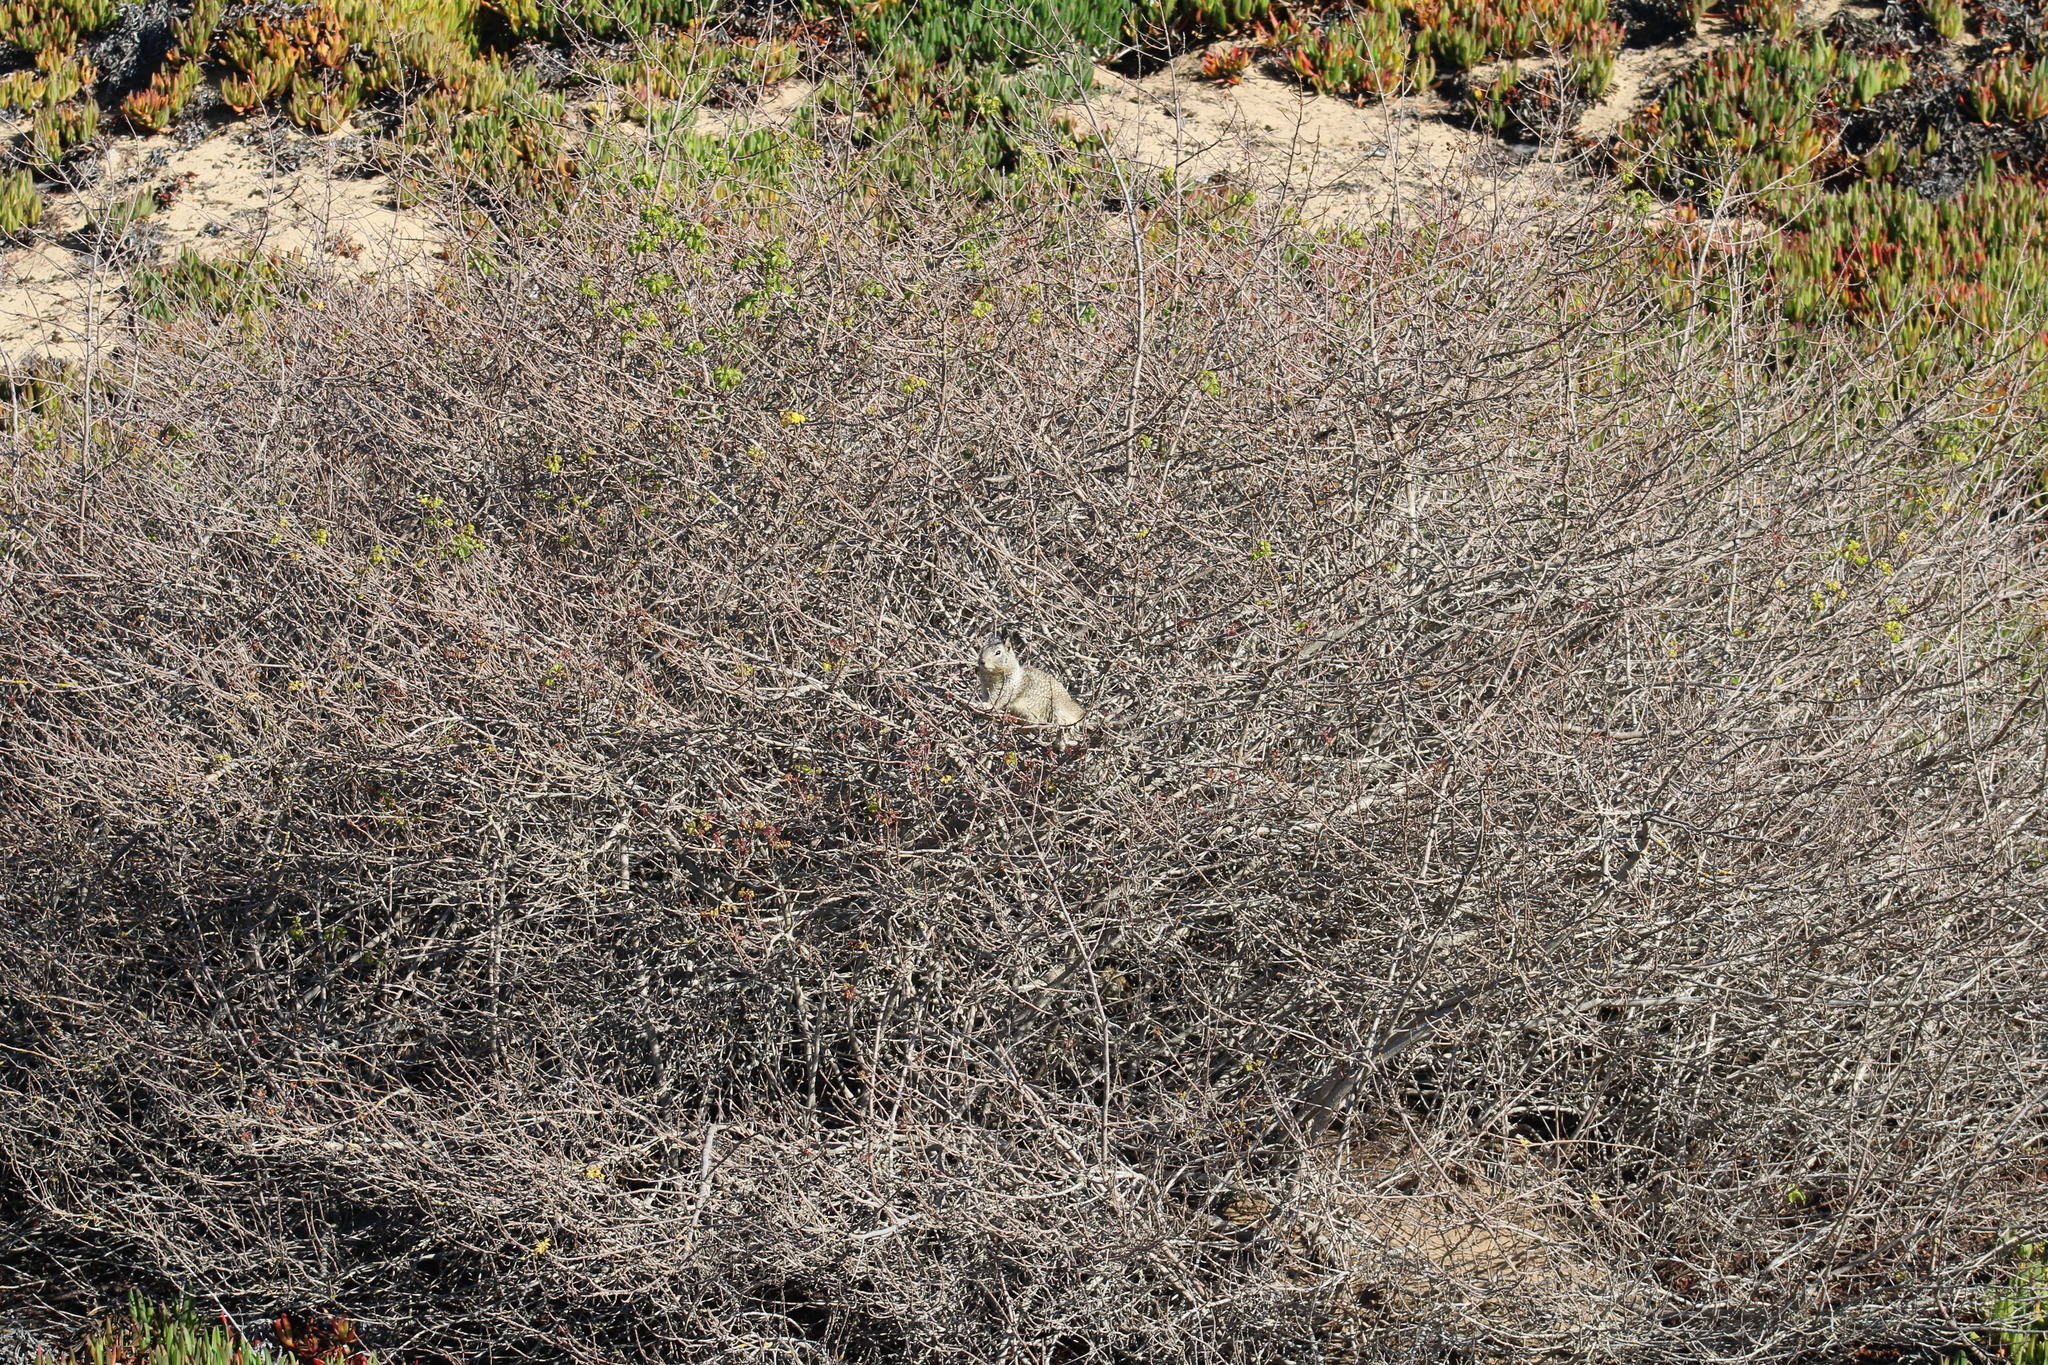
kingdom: Animalia
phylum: Chordata
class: Mammalia
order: Rodentia
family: Sciuridae
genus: Otospermophilus
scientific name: Otospermophilus beecheyi
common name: California ground squirrel
